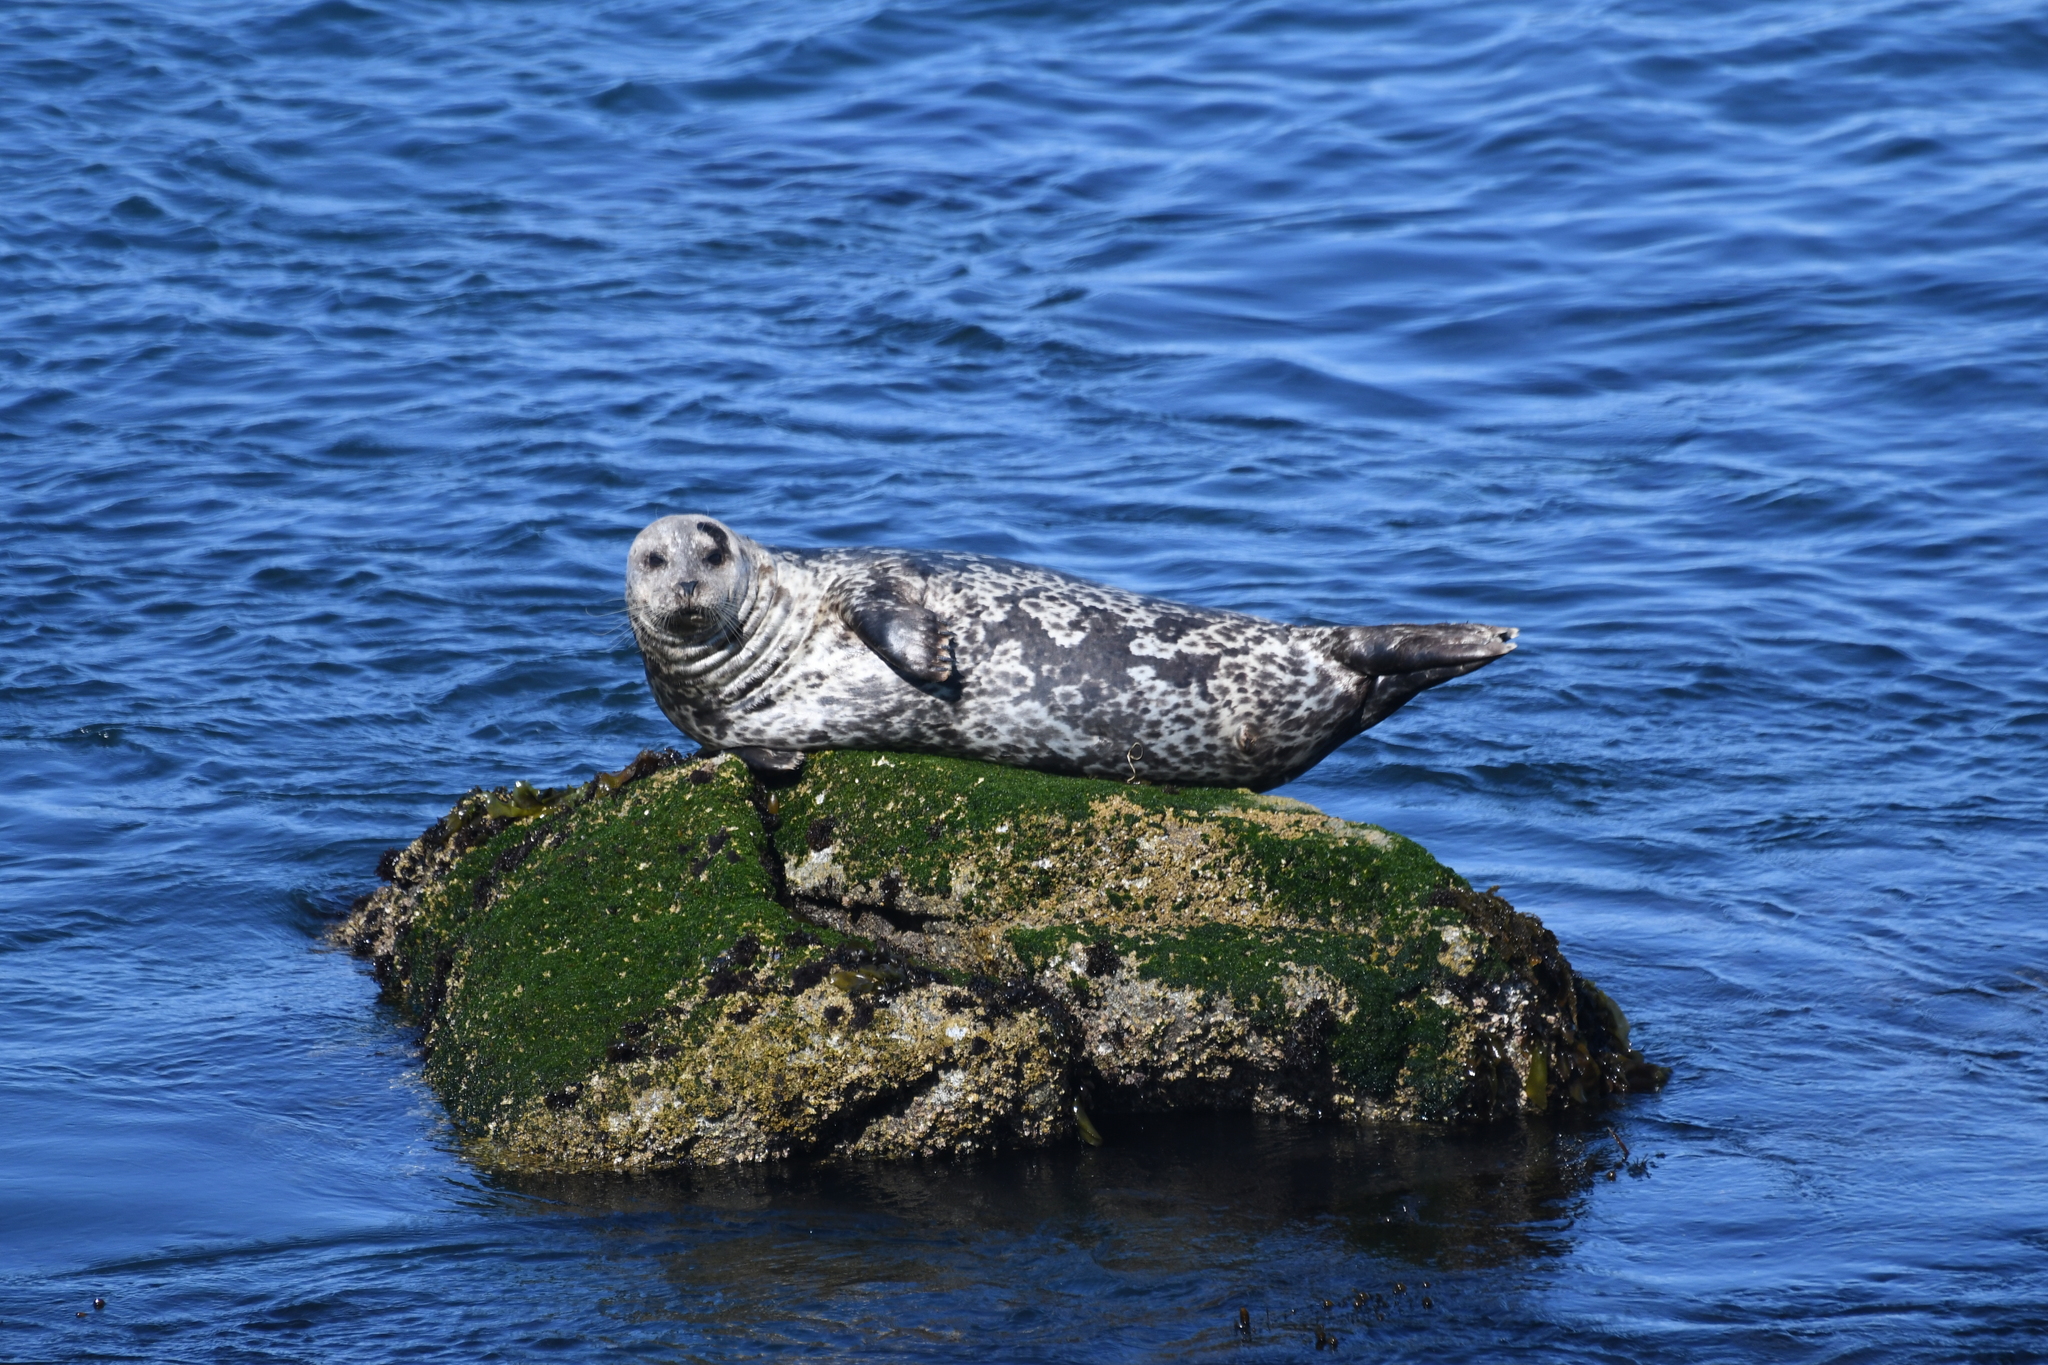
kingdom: Animalia
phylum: Chordata
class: Mammalia
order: Carnivora
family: Phocidae
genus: Phoca
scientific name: Phoca vitulina
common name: Harbor seal
